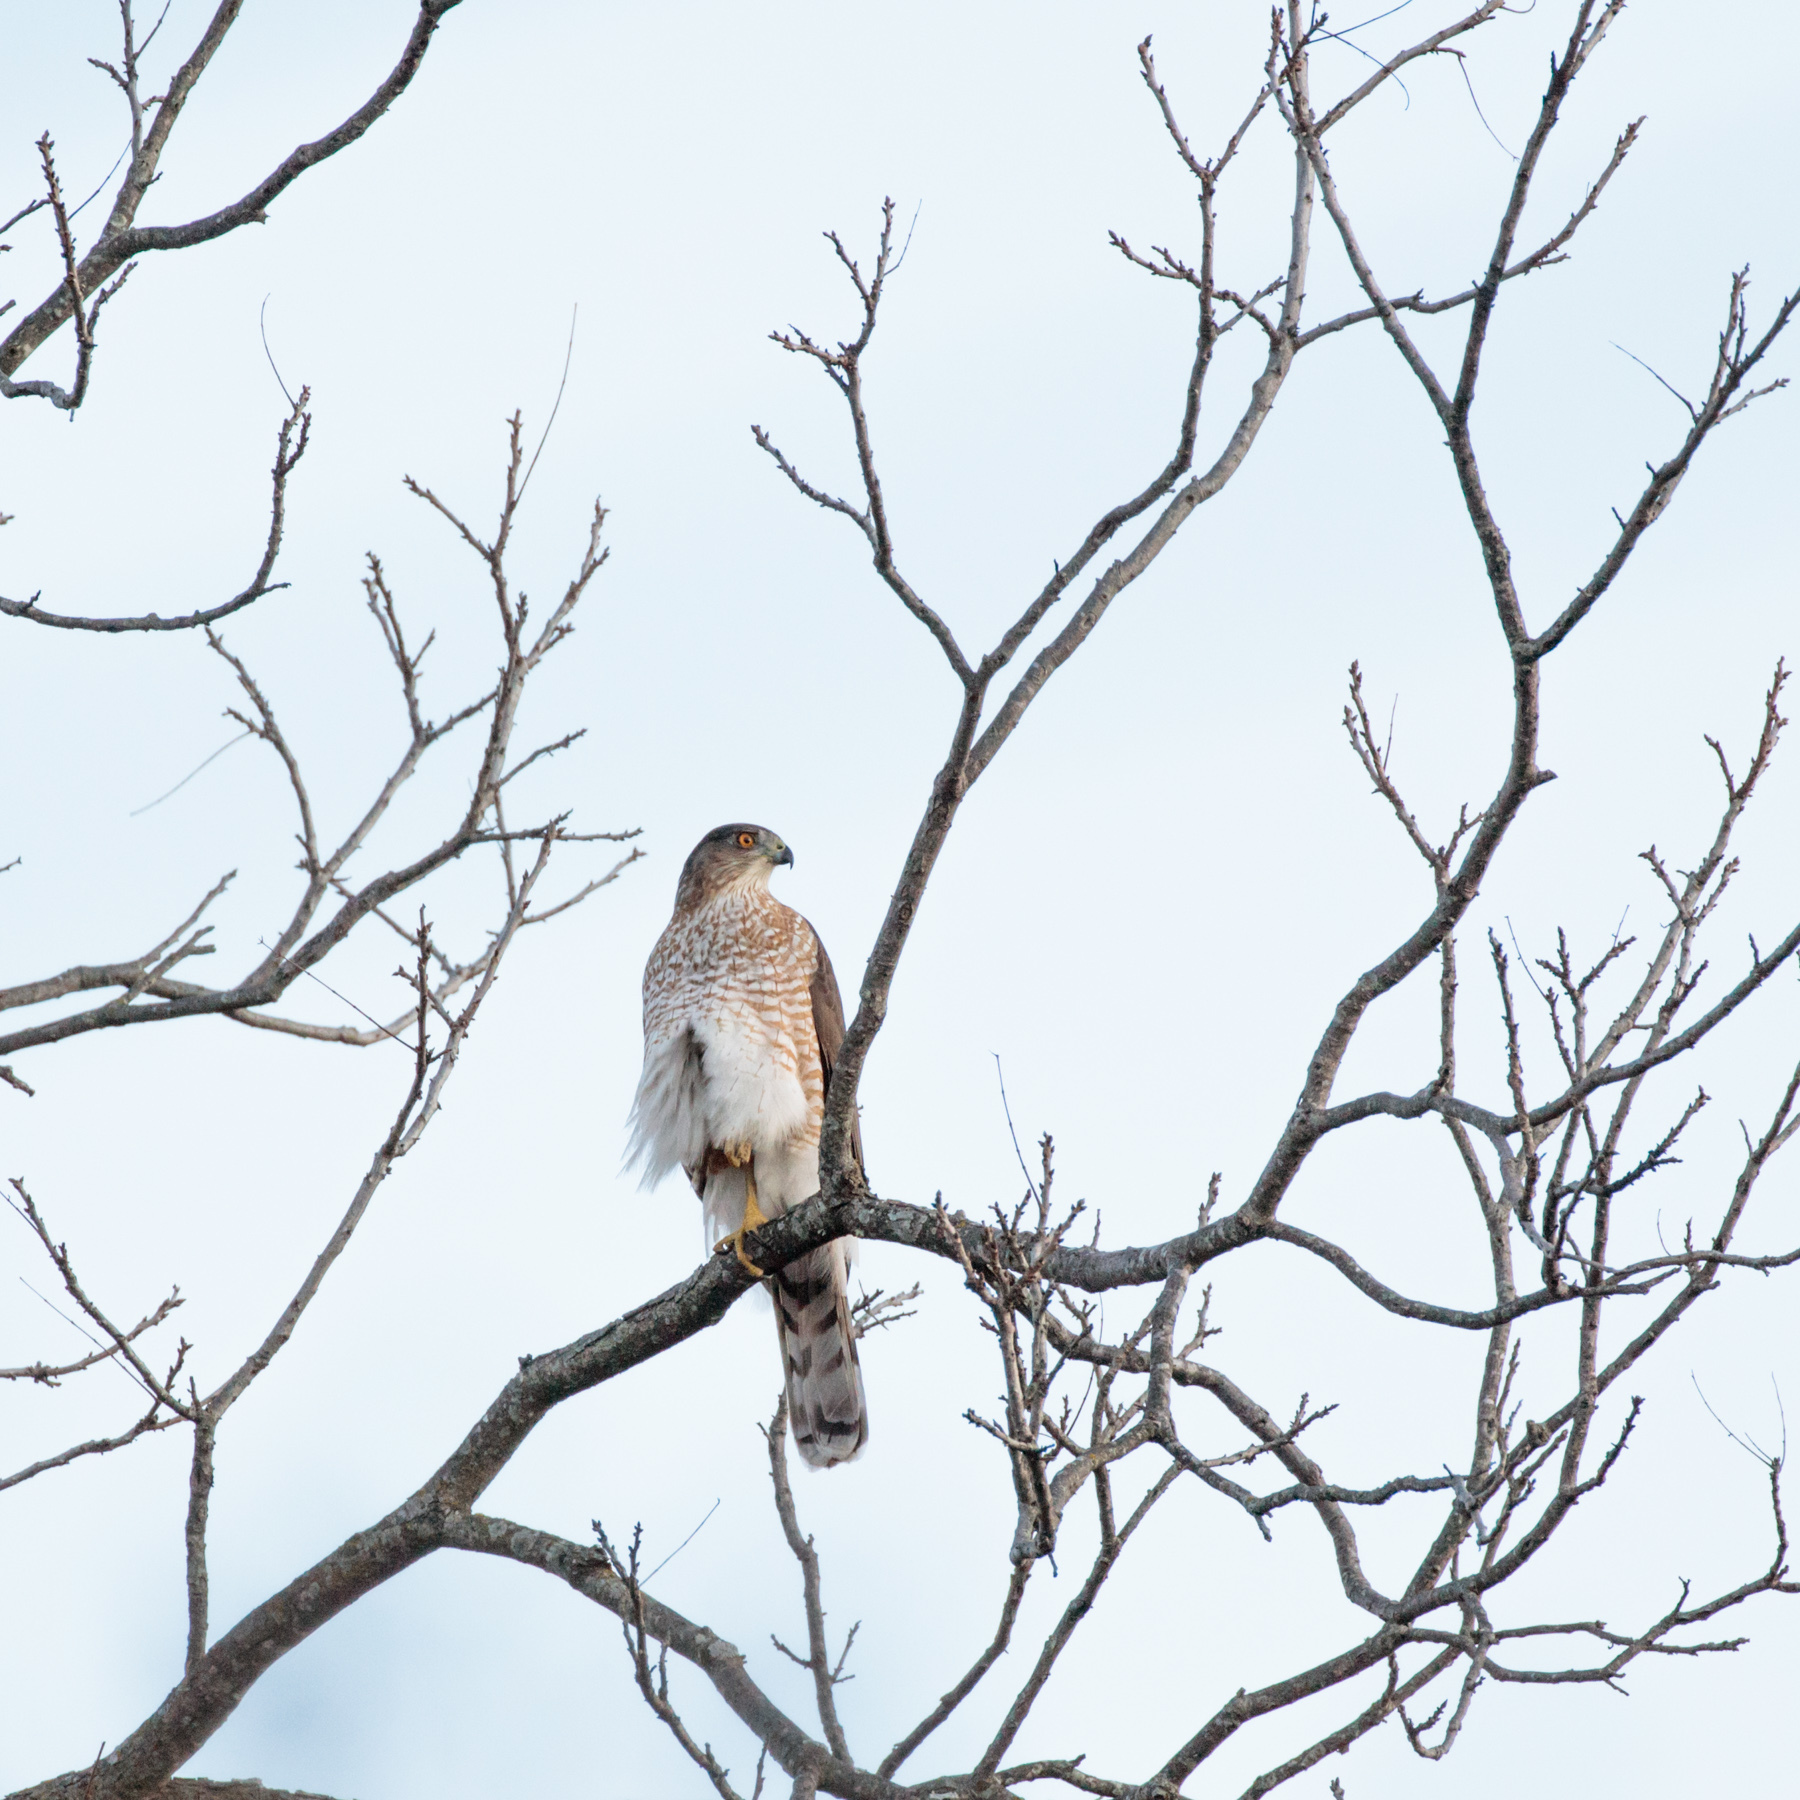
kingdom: Animalia
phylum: Chordata
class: Aves
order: Accipitriformes
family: Accipitridae
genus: Accipiter
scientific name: Accipiter cooperii
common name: Cooper's hawk
